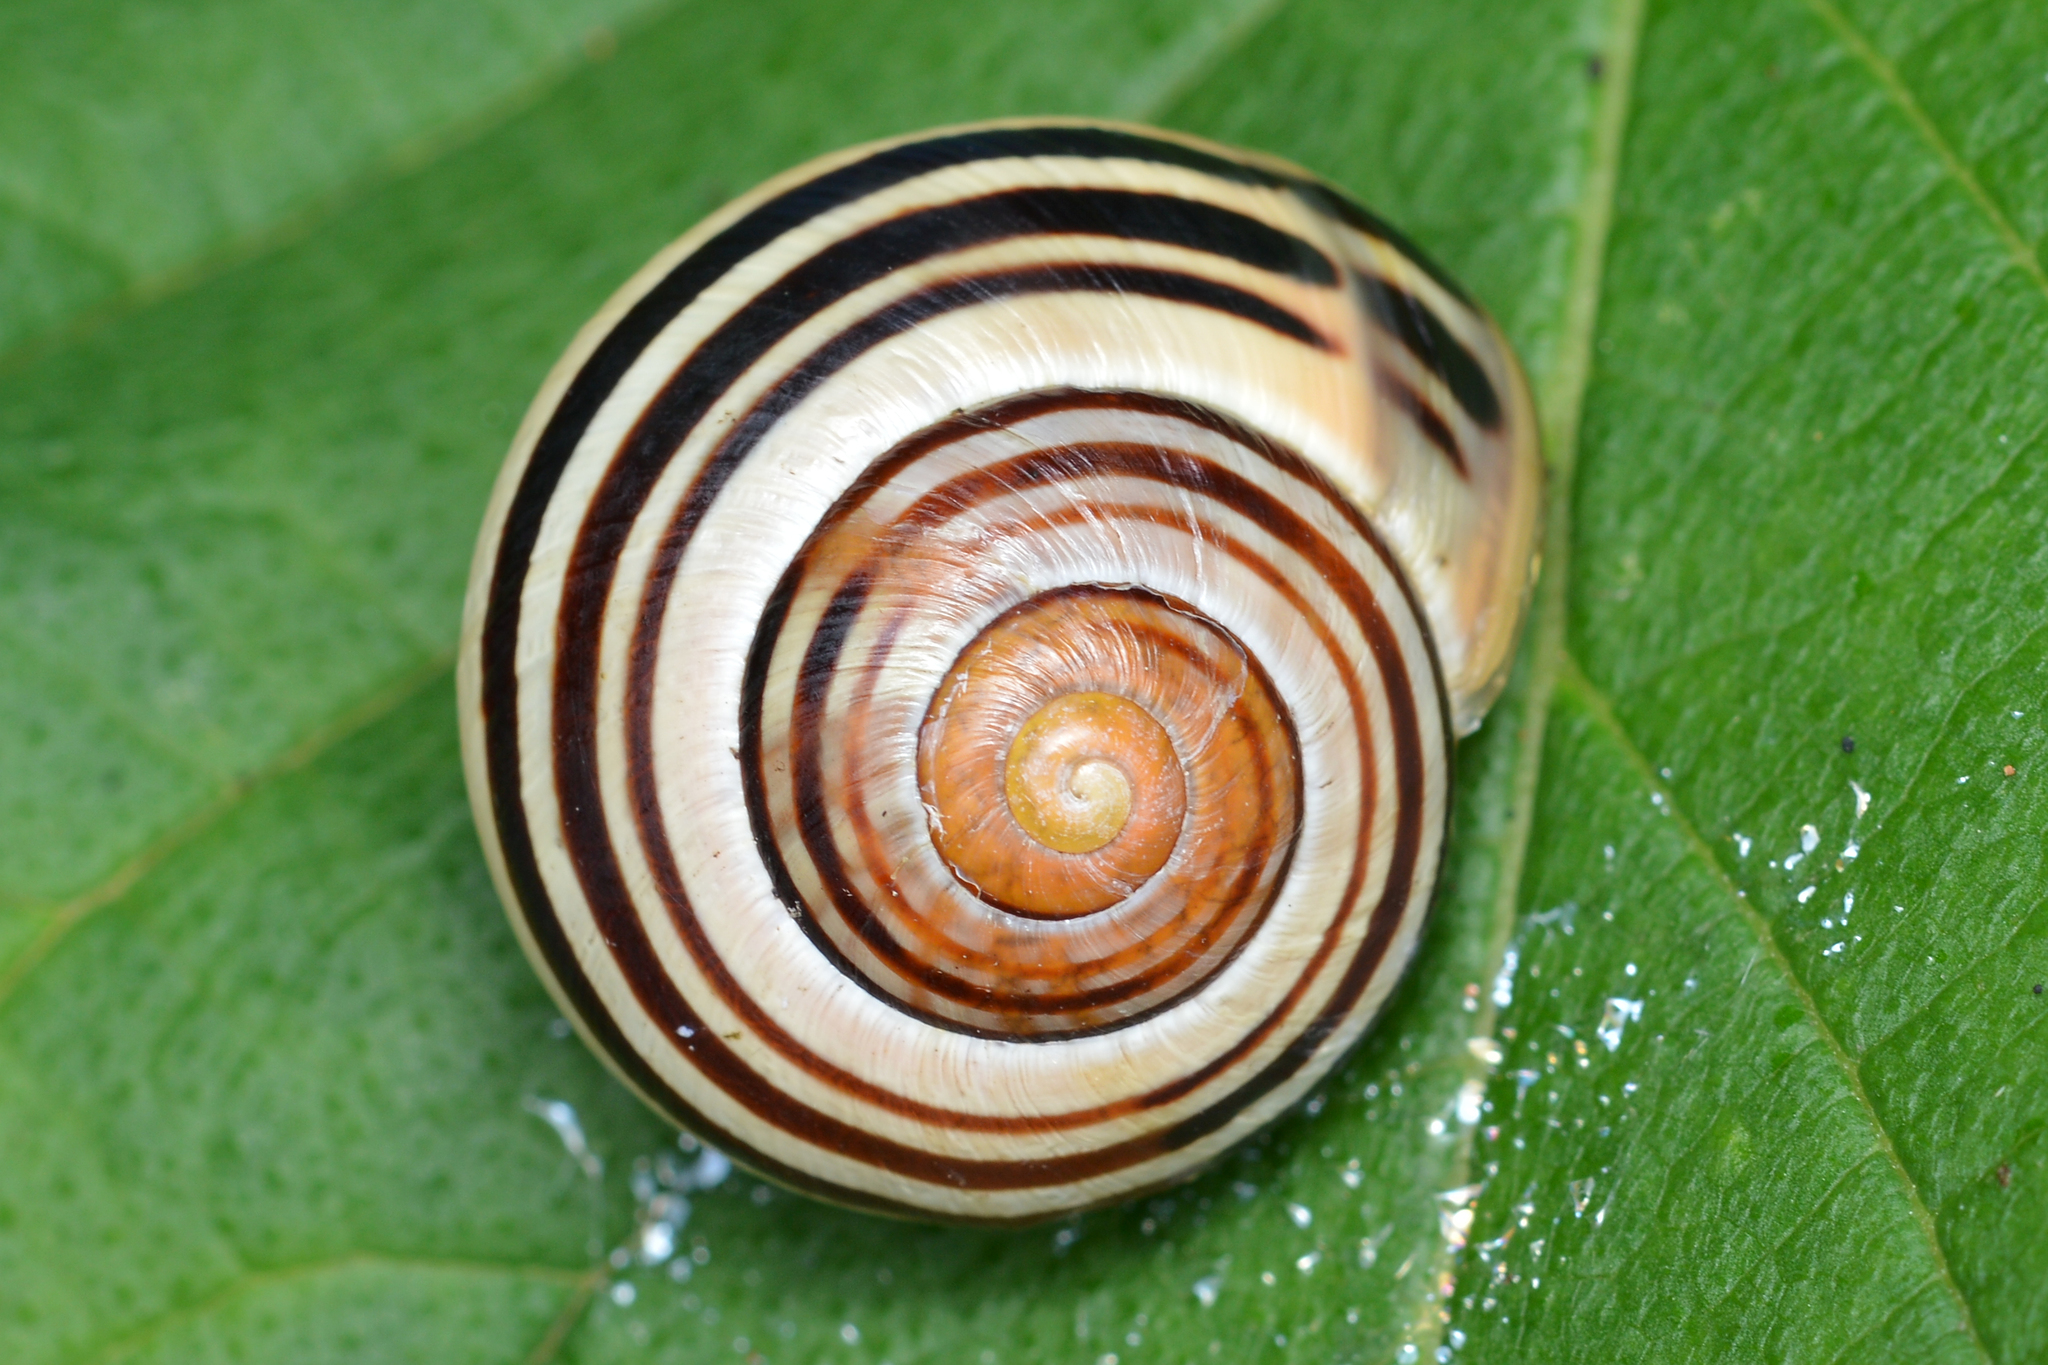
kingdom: Animalia
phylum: Mollusca
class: Gastropoda
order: Stylommatophora
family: Helicidae
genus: Cepaea
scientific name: Cepaea
